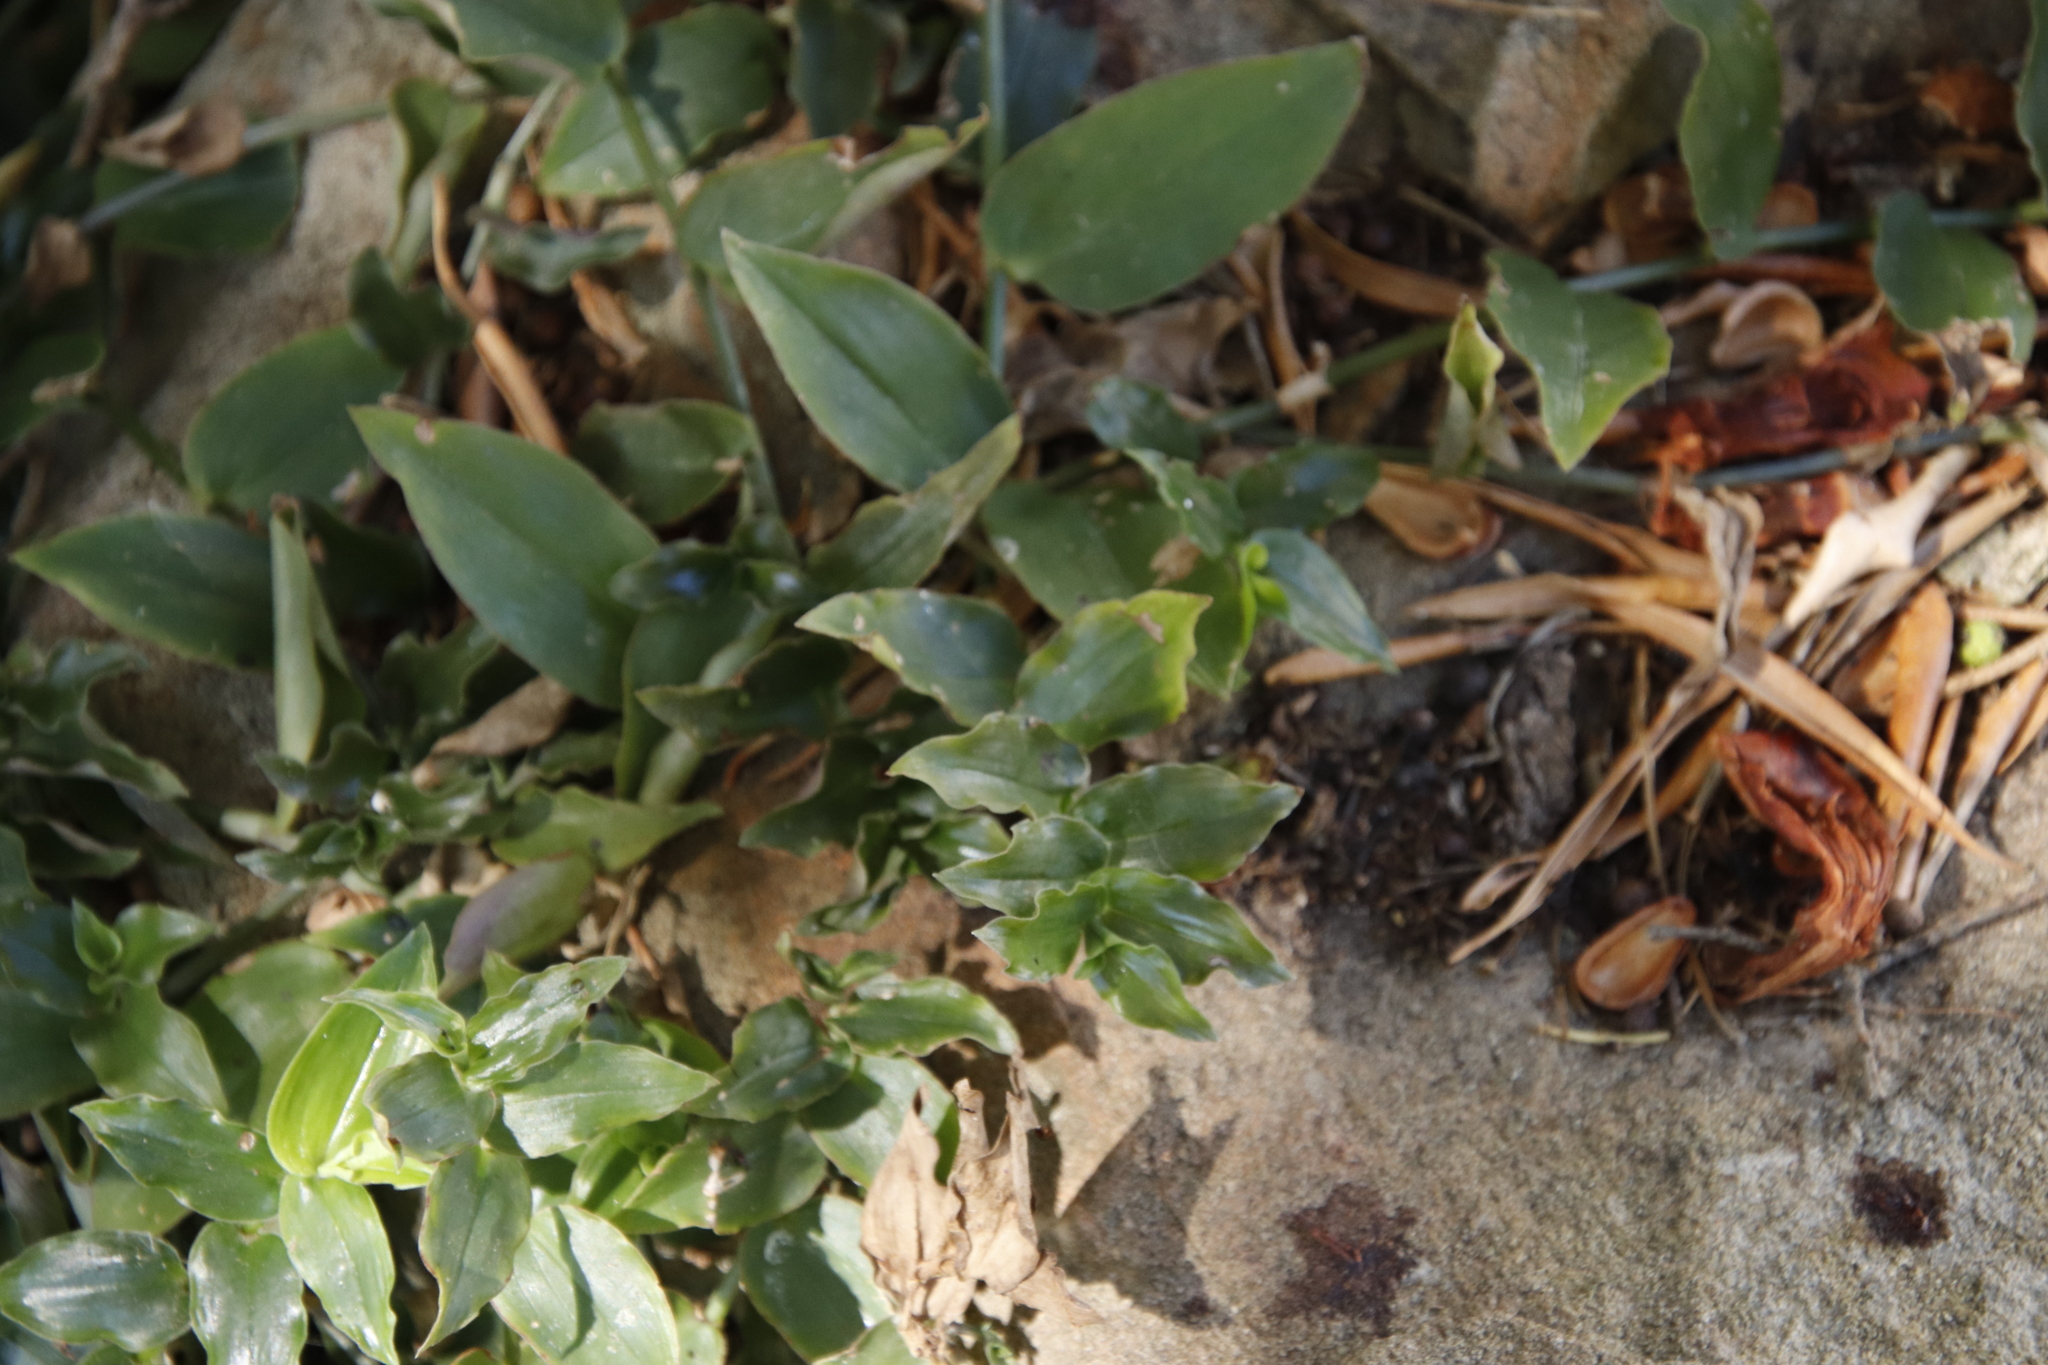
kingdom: Plantae
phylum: Tracheophyta
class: Liliopsida
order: Commelinales
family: Commelinaceae
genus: Tradescantia
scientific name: Tradescantia fluminensis
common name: Wandering-jew
